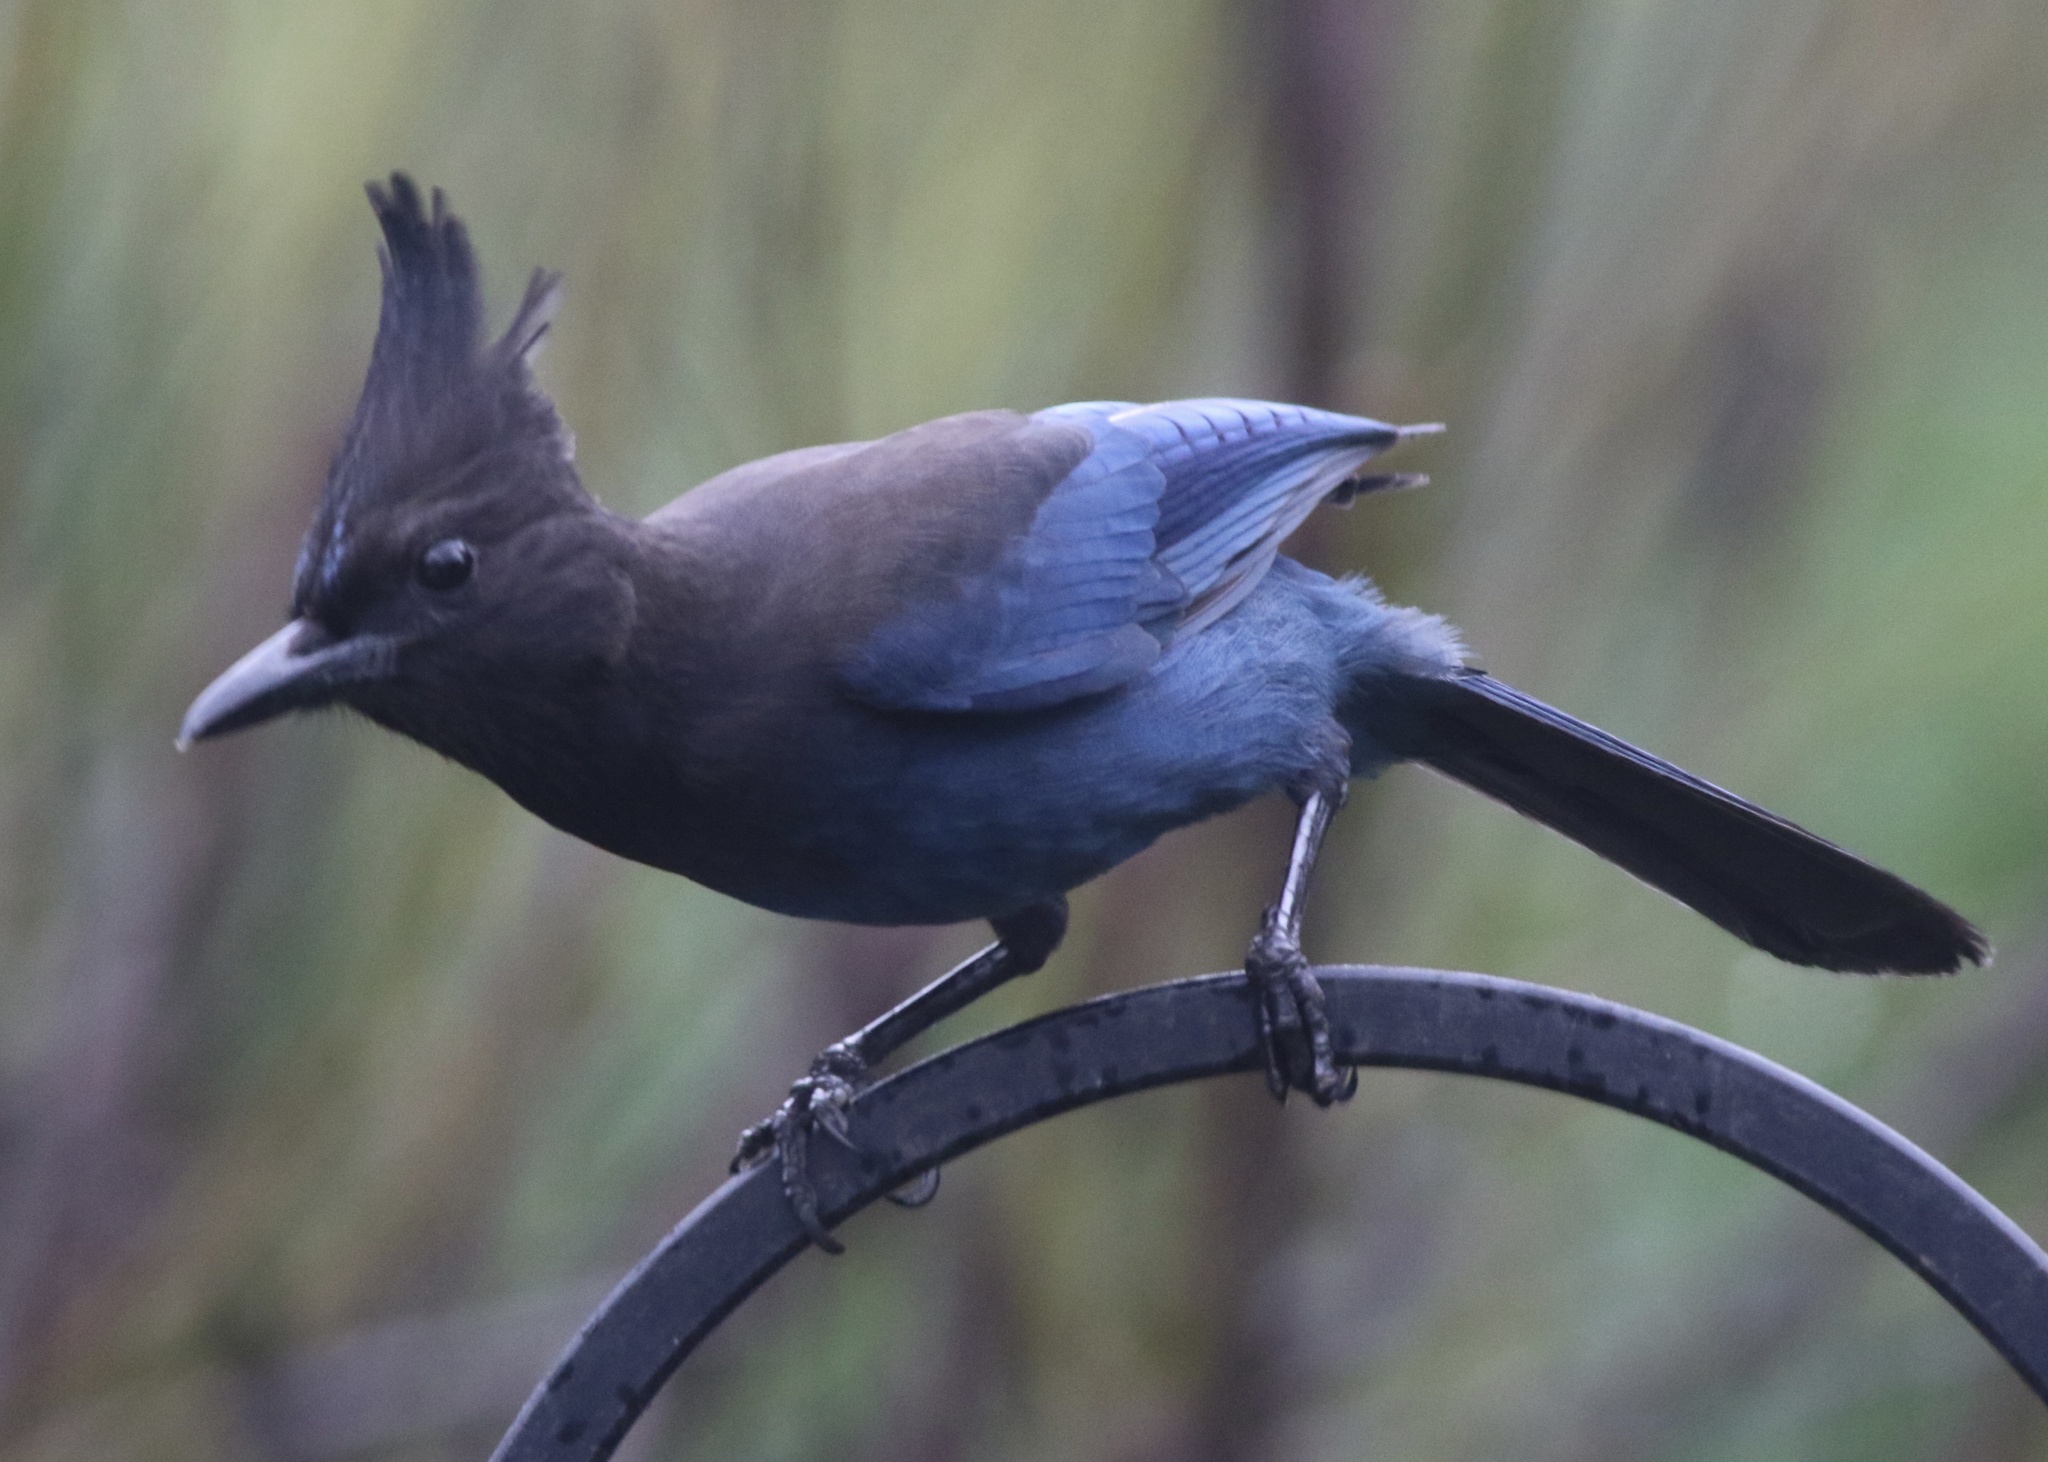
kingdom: Animalia
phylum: Chordata
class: Aves
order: Passeriformes
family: Corvidae
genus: Cyanocitta
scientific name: Cyanocitta stelleri
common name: Steller's jay
